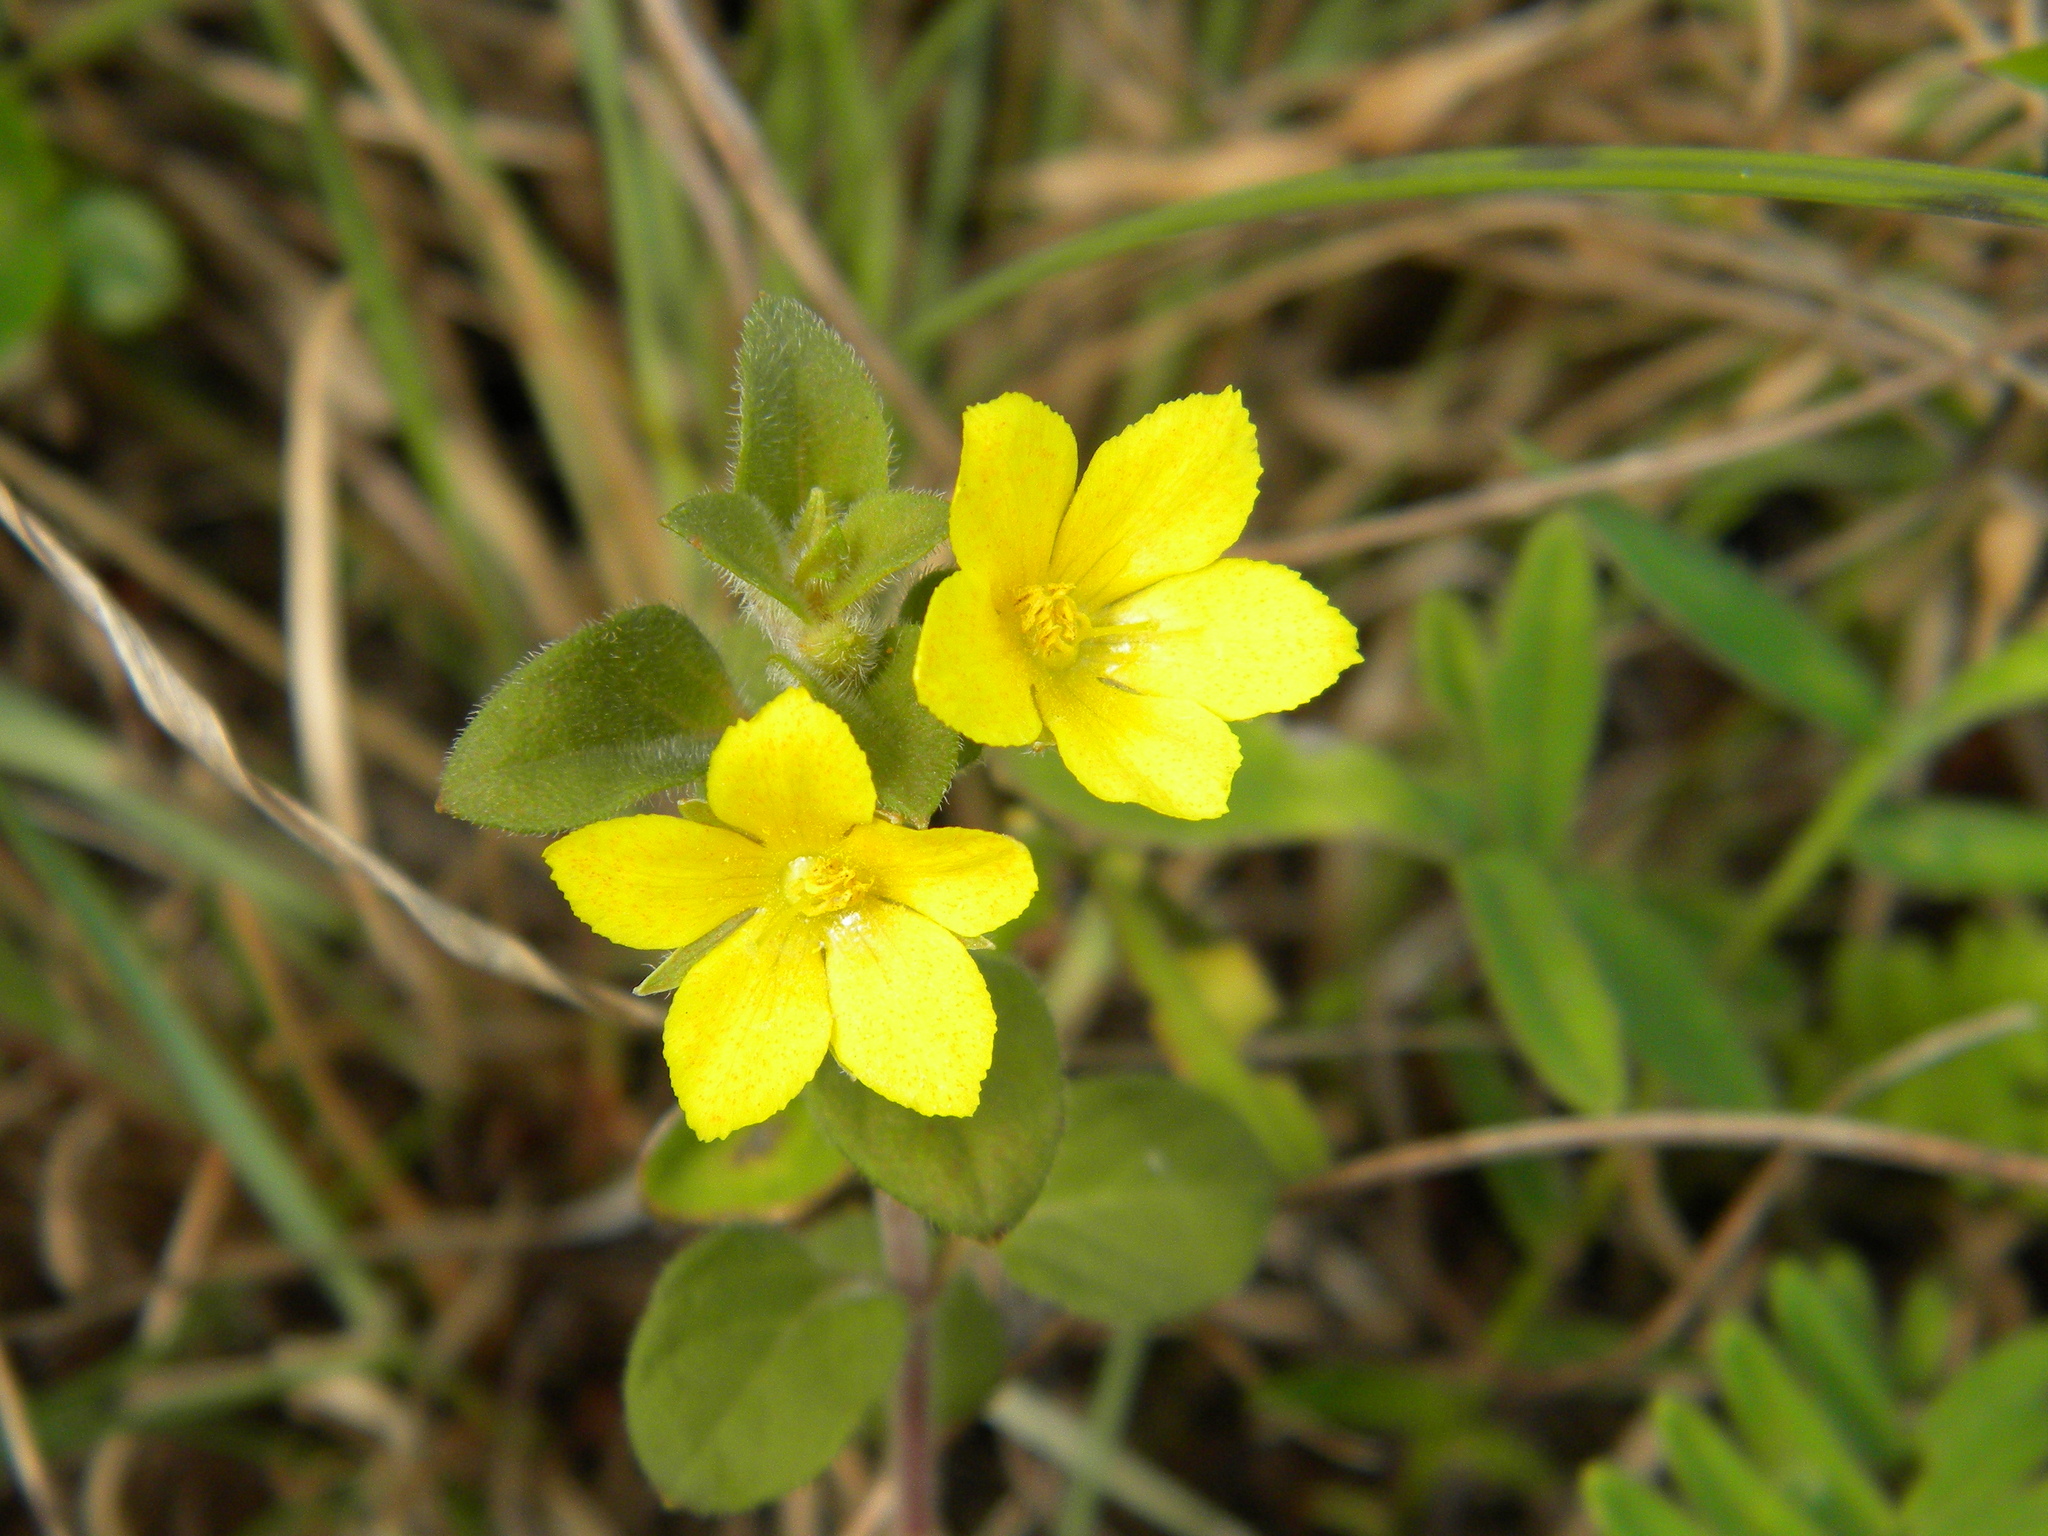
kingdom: Plantae
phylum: Tracheophyta
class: Magnoliopsida
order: Brassicales
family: Cleomaceae
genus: Arivela
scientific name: Arivela viscosa
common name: Asian spiderflower
